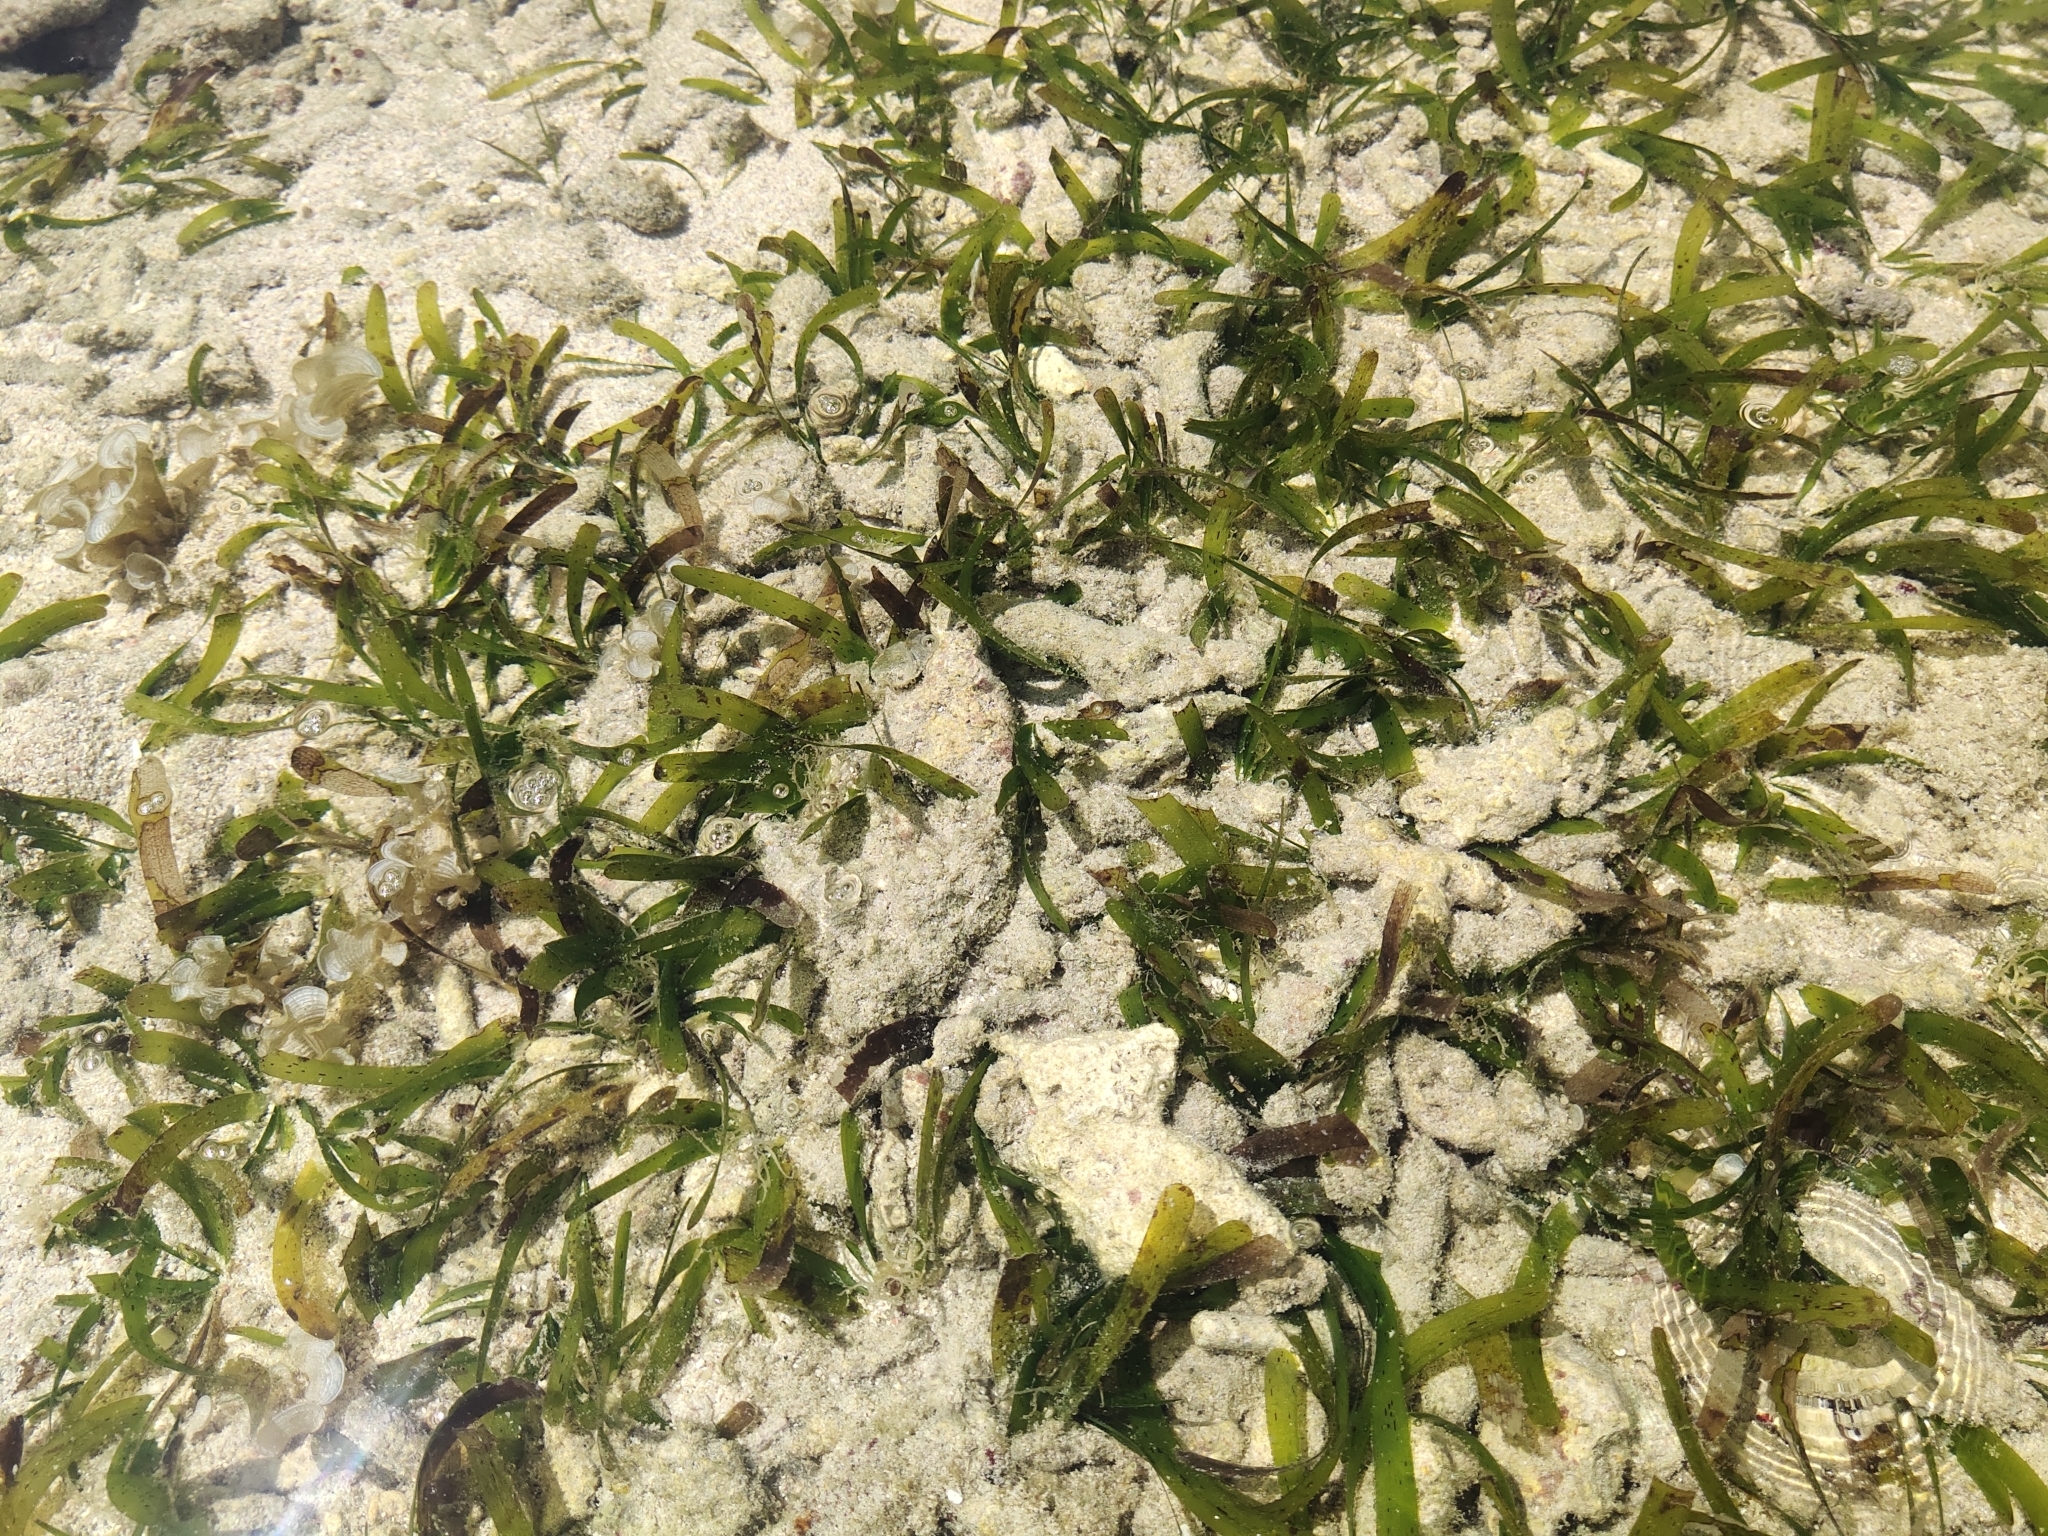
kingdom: Plantae
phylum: Tracheophyta
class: Liliopsida
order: Alismatales
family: Hydrocharitaceae
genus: Thalassia
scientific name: Thalassia hemprichii
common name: Species code: th
